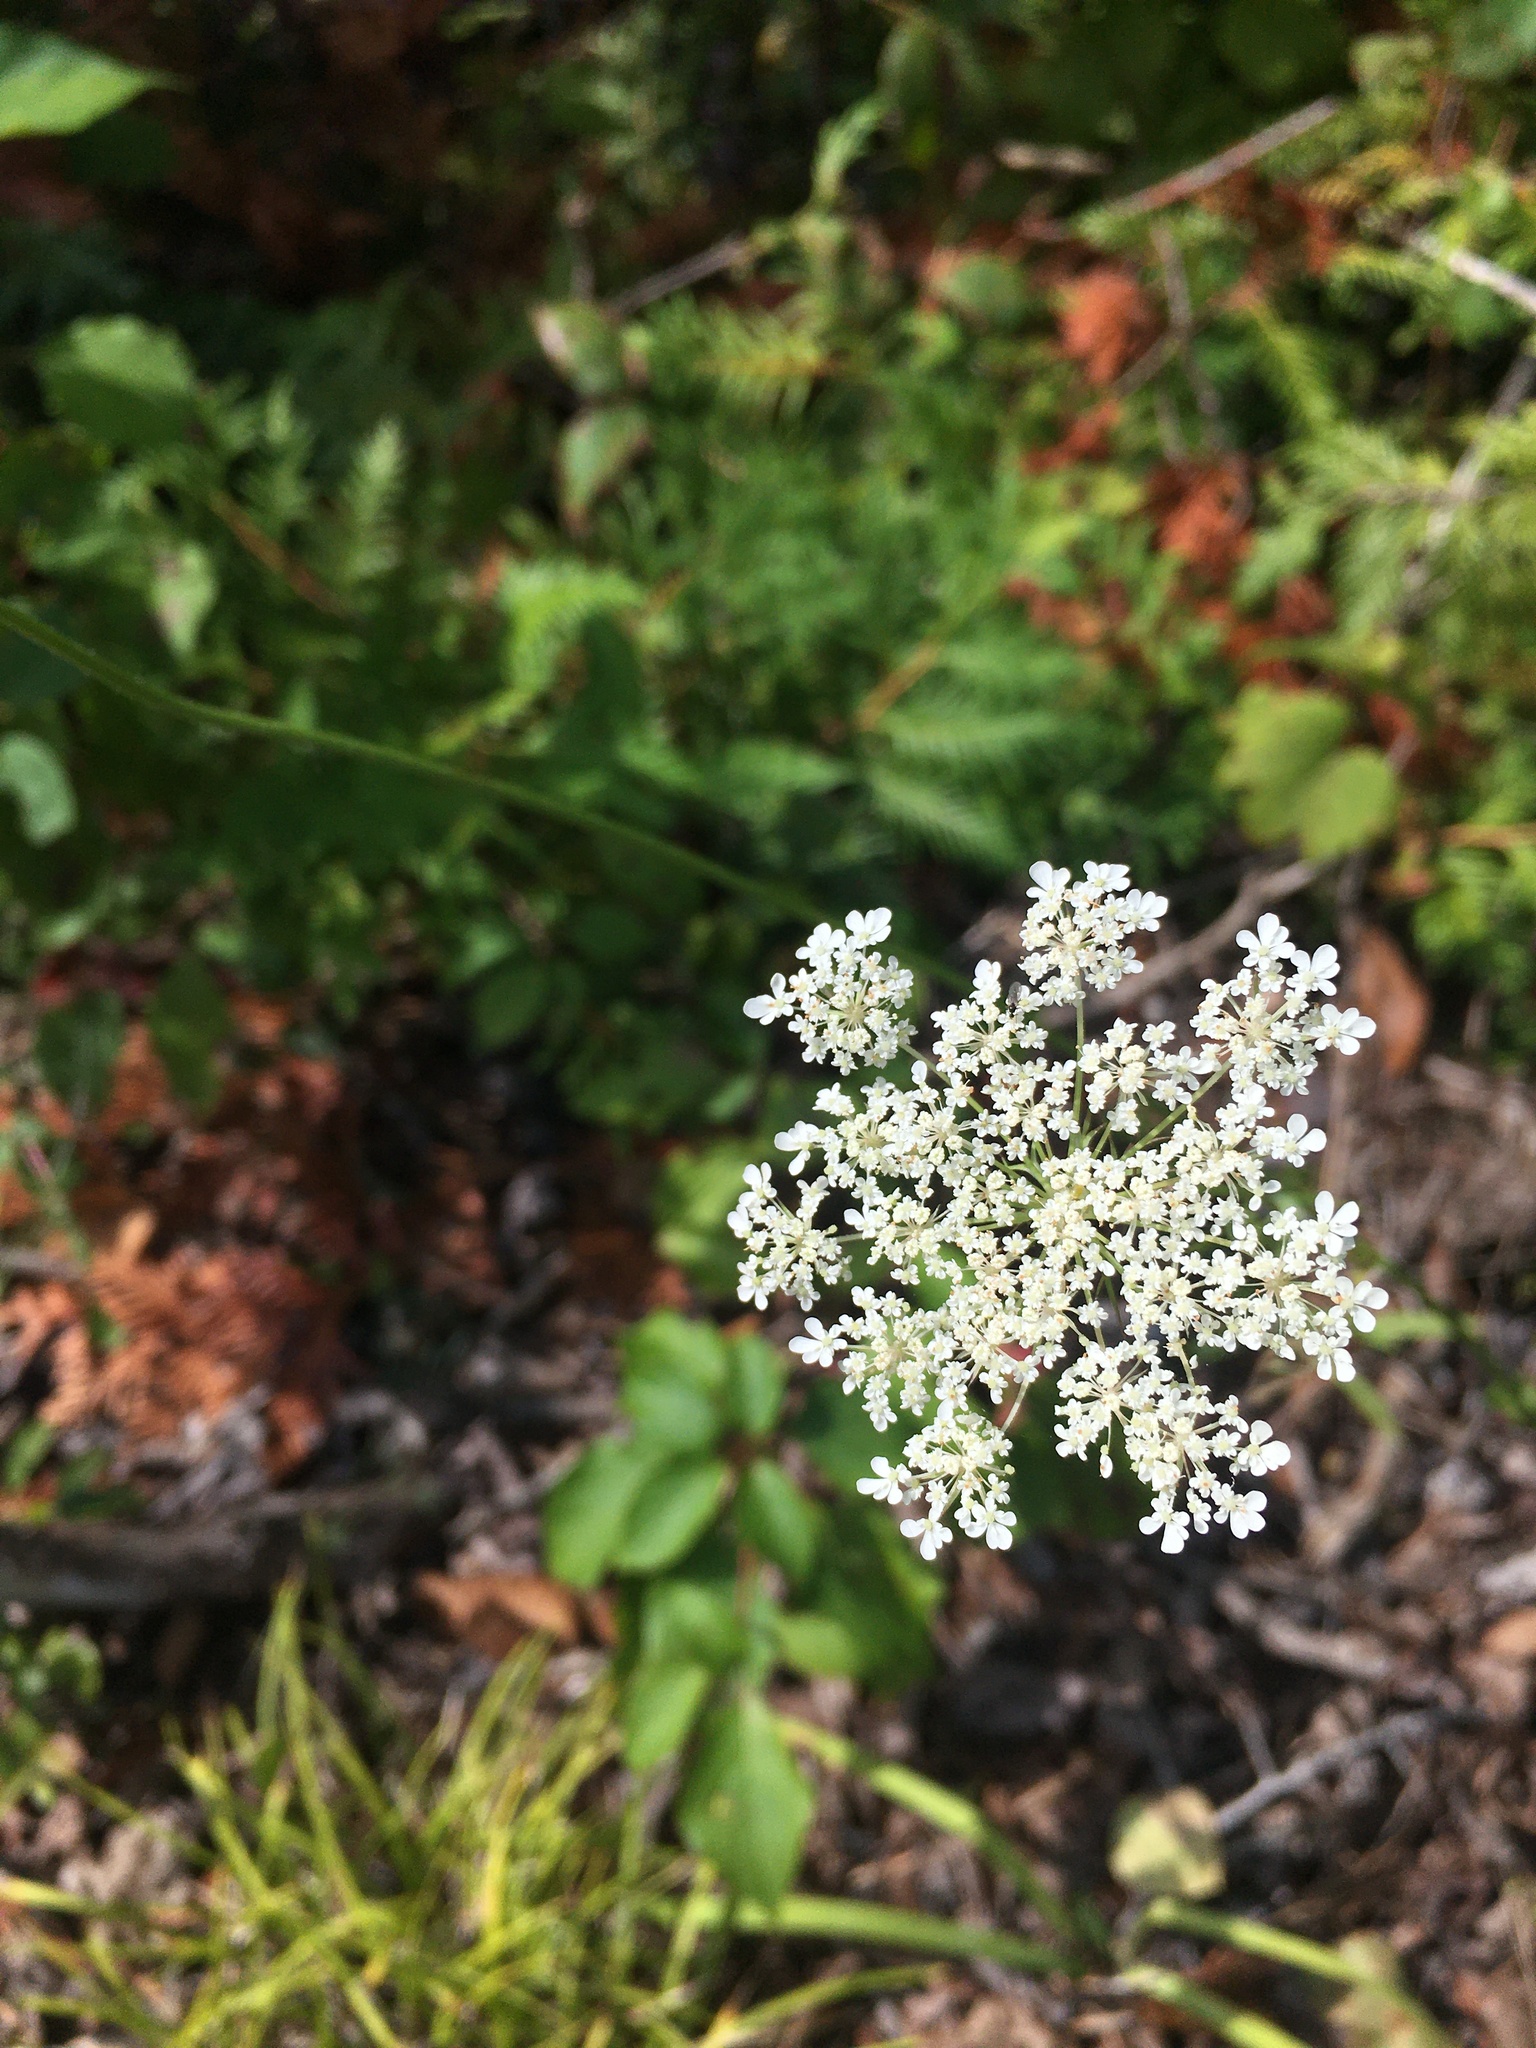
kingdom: Plantae
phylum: Tracheophyta
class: Magnoliopsida
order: Apiales
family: Apiaceae
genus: Daucus
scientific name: Daucus carota
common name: Wild carrot
